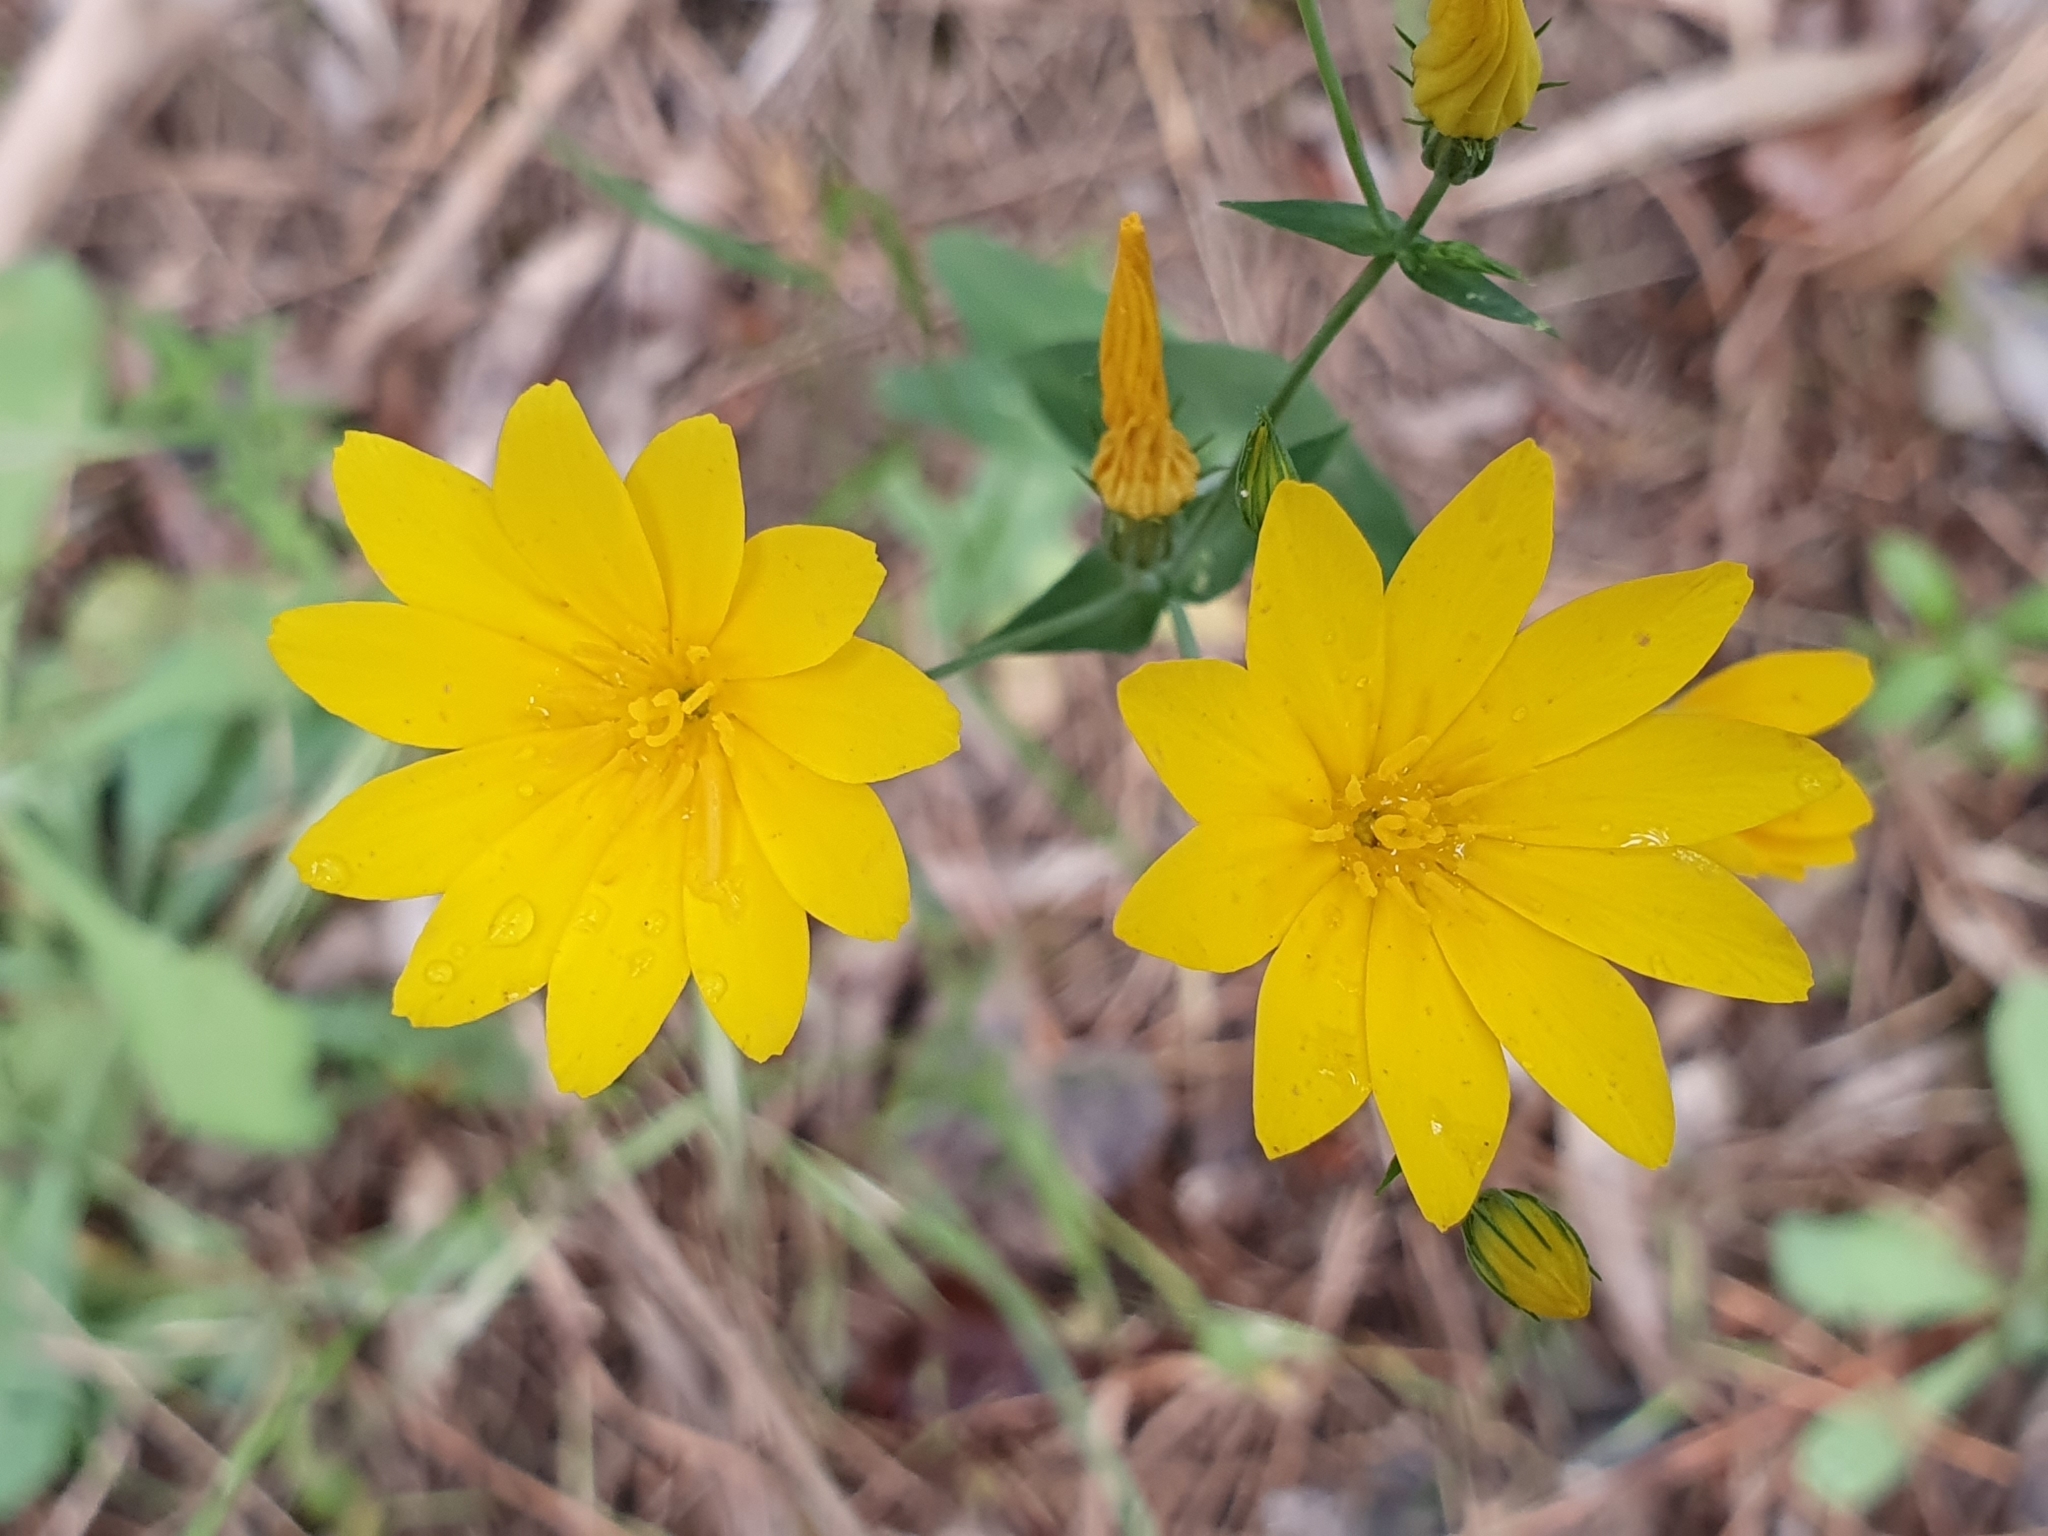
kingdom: Plantae
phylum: Tracheophyta
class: Magnoliopsida
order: Gentianales
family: Gentianaceae
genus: Blackstonia
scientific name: Blackstonia grandiflora
